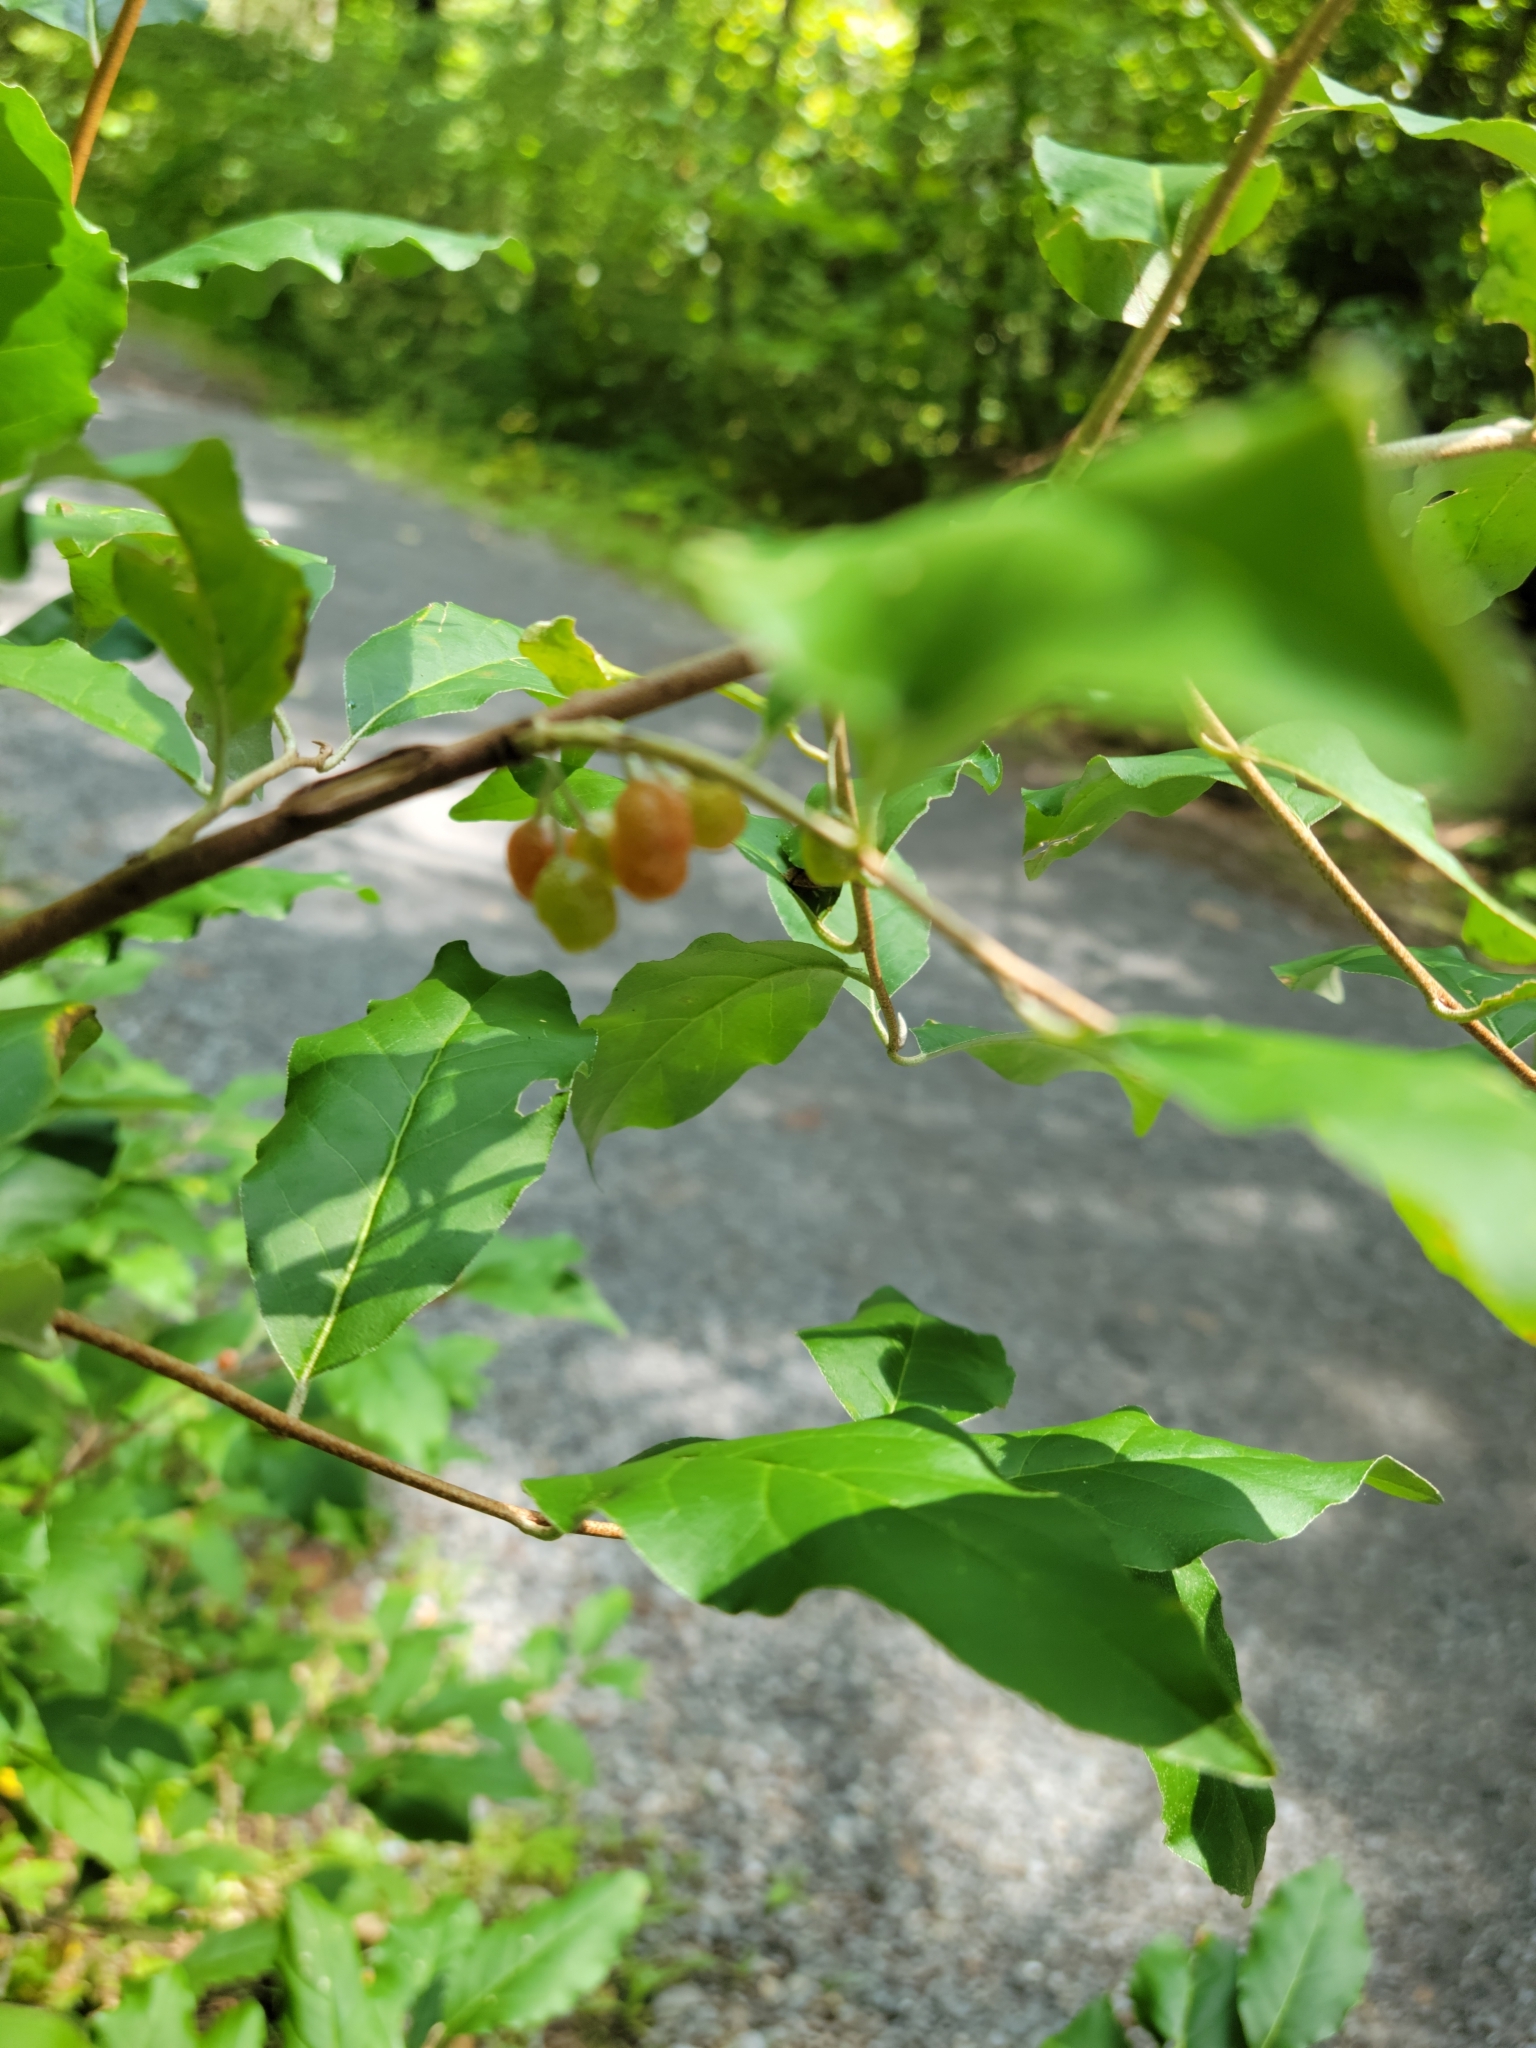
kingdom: Plantae
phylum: Tracheophyta
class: Magnoliopsida
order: Rosales
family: Elaeagnaceae
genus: Elaeagnus
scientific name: Elaeagnus umbellata
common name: Autumn olive
